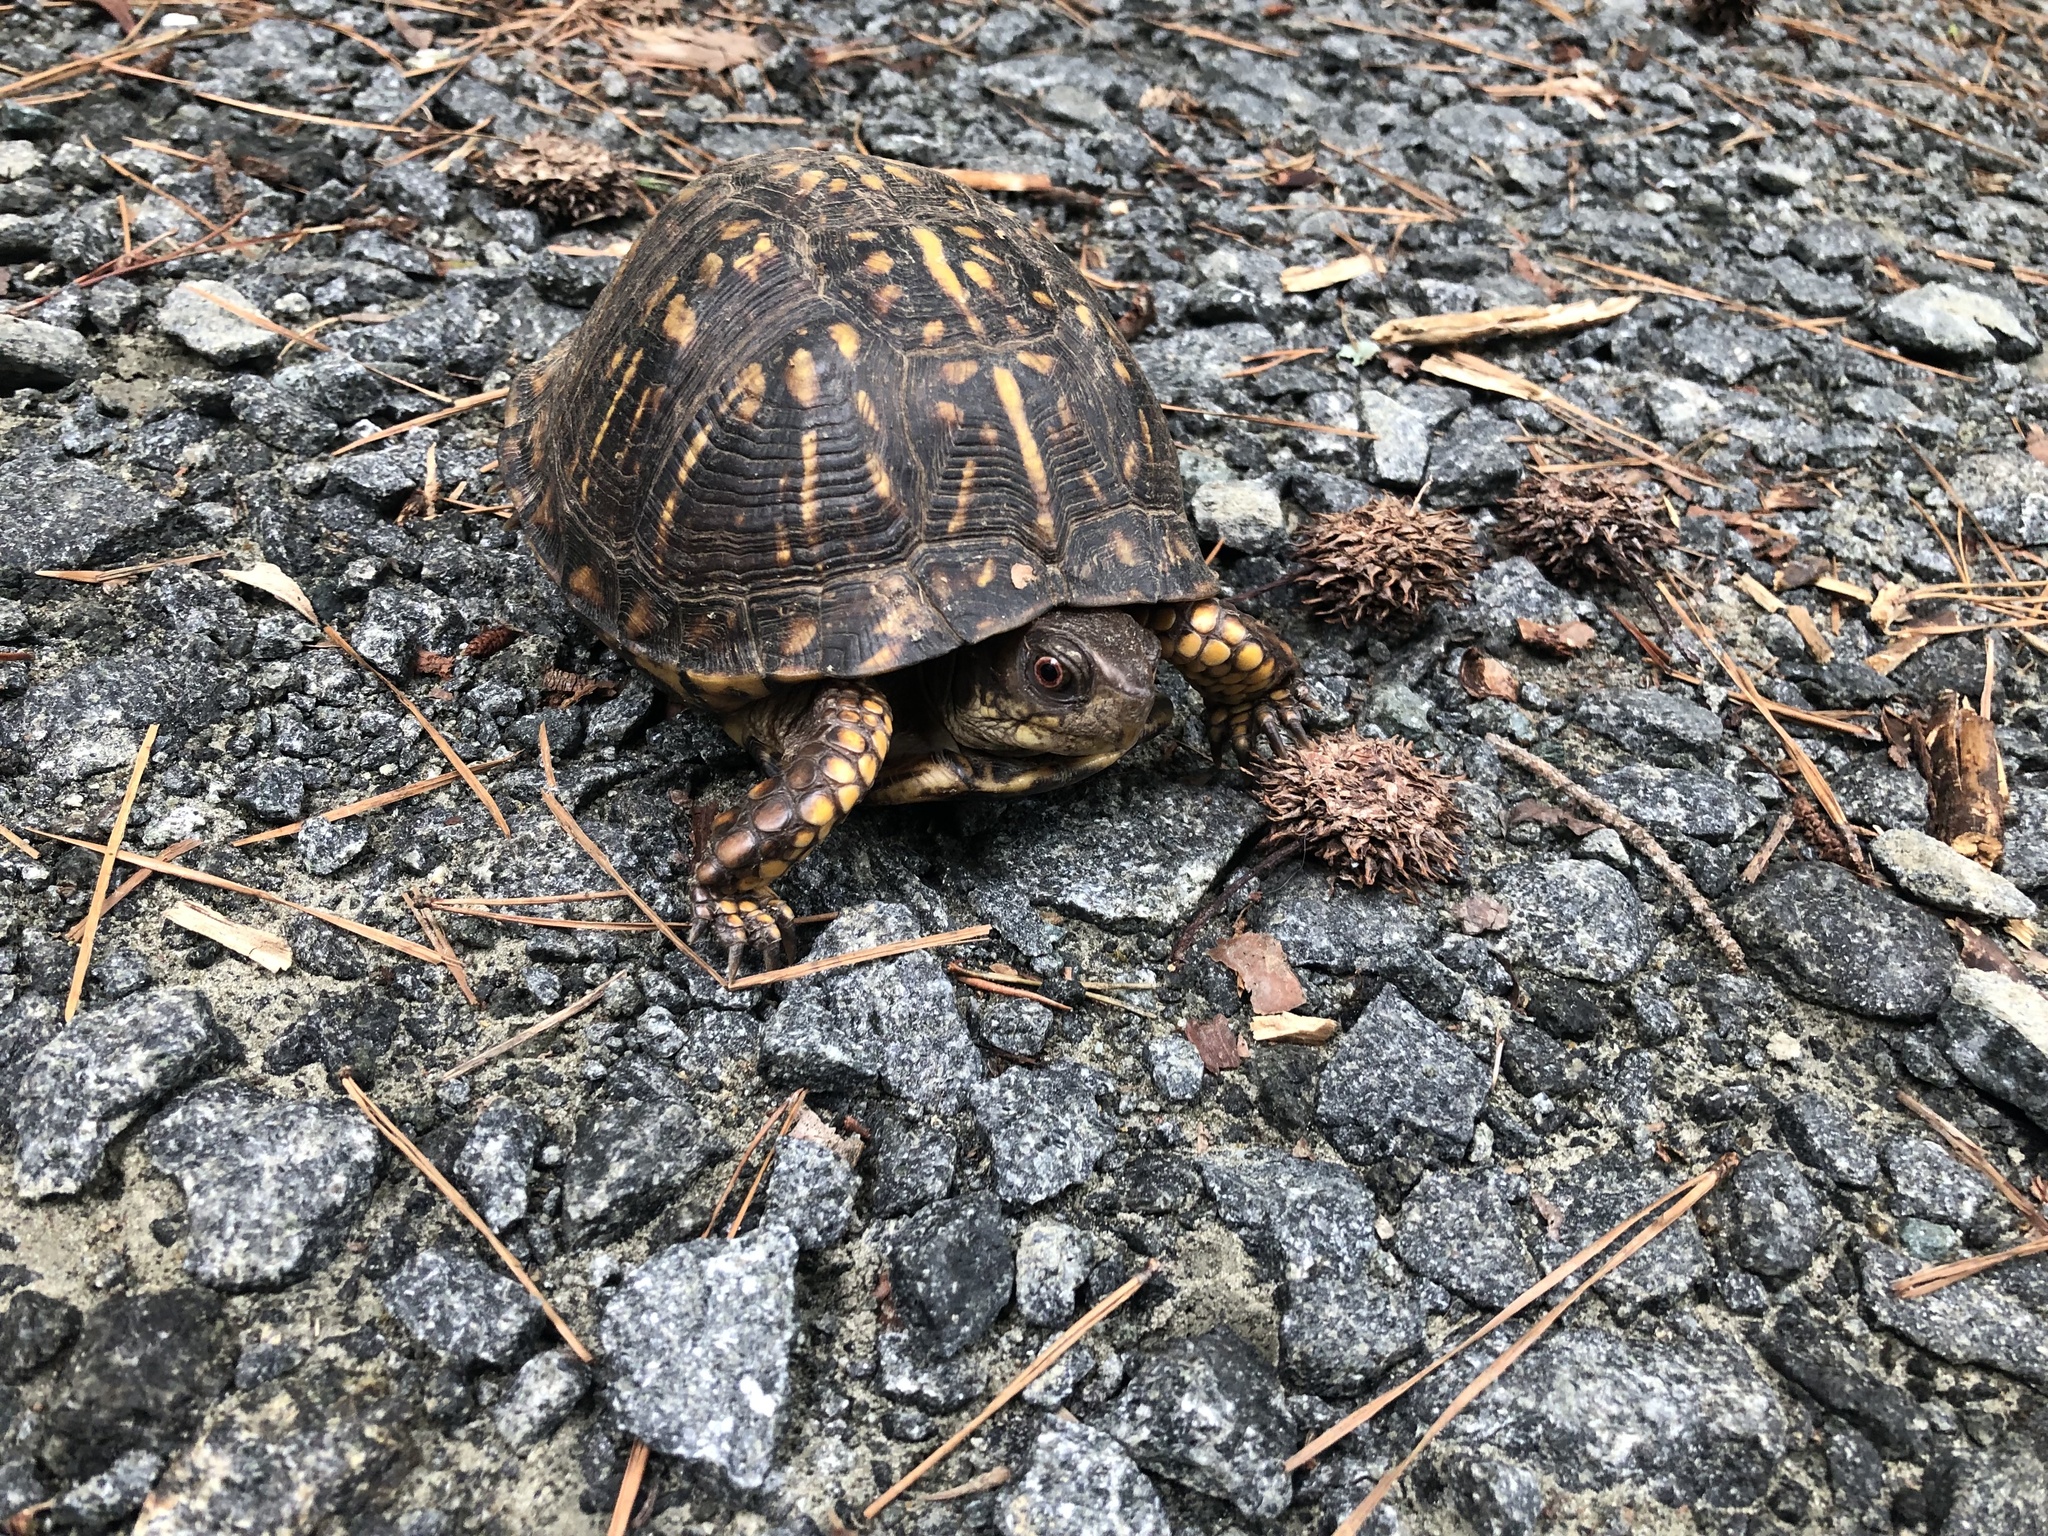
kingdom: Animalia
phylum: Chordata
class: Testudines
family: Emydidae
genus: Terrapene
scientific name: Terrapene carolina
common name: Common box turtle
